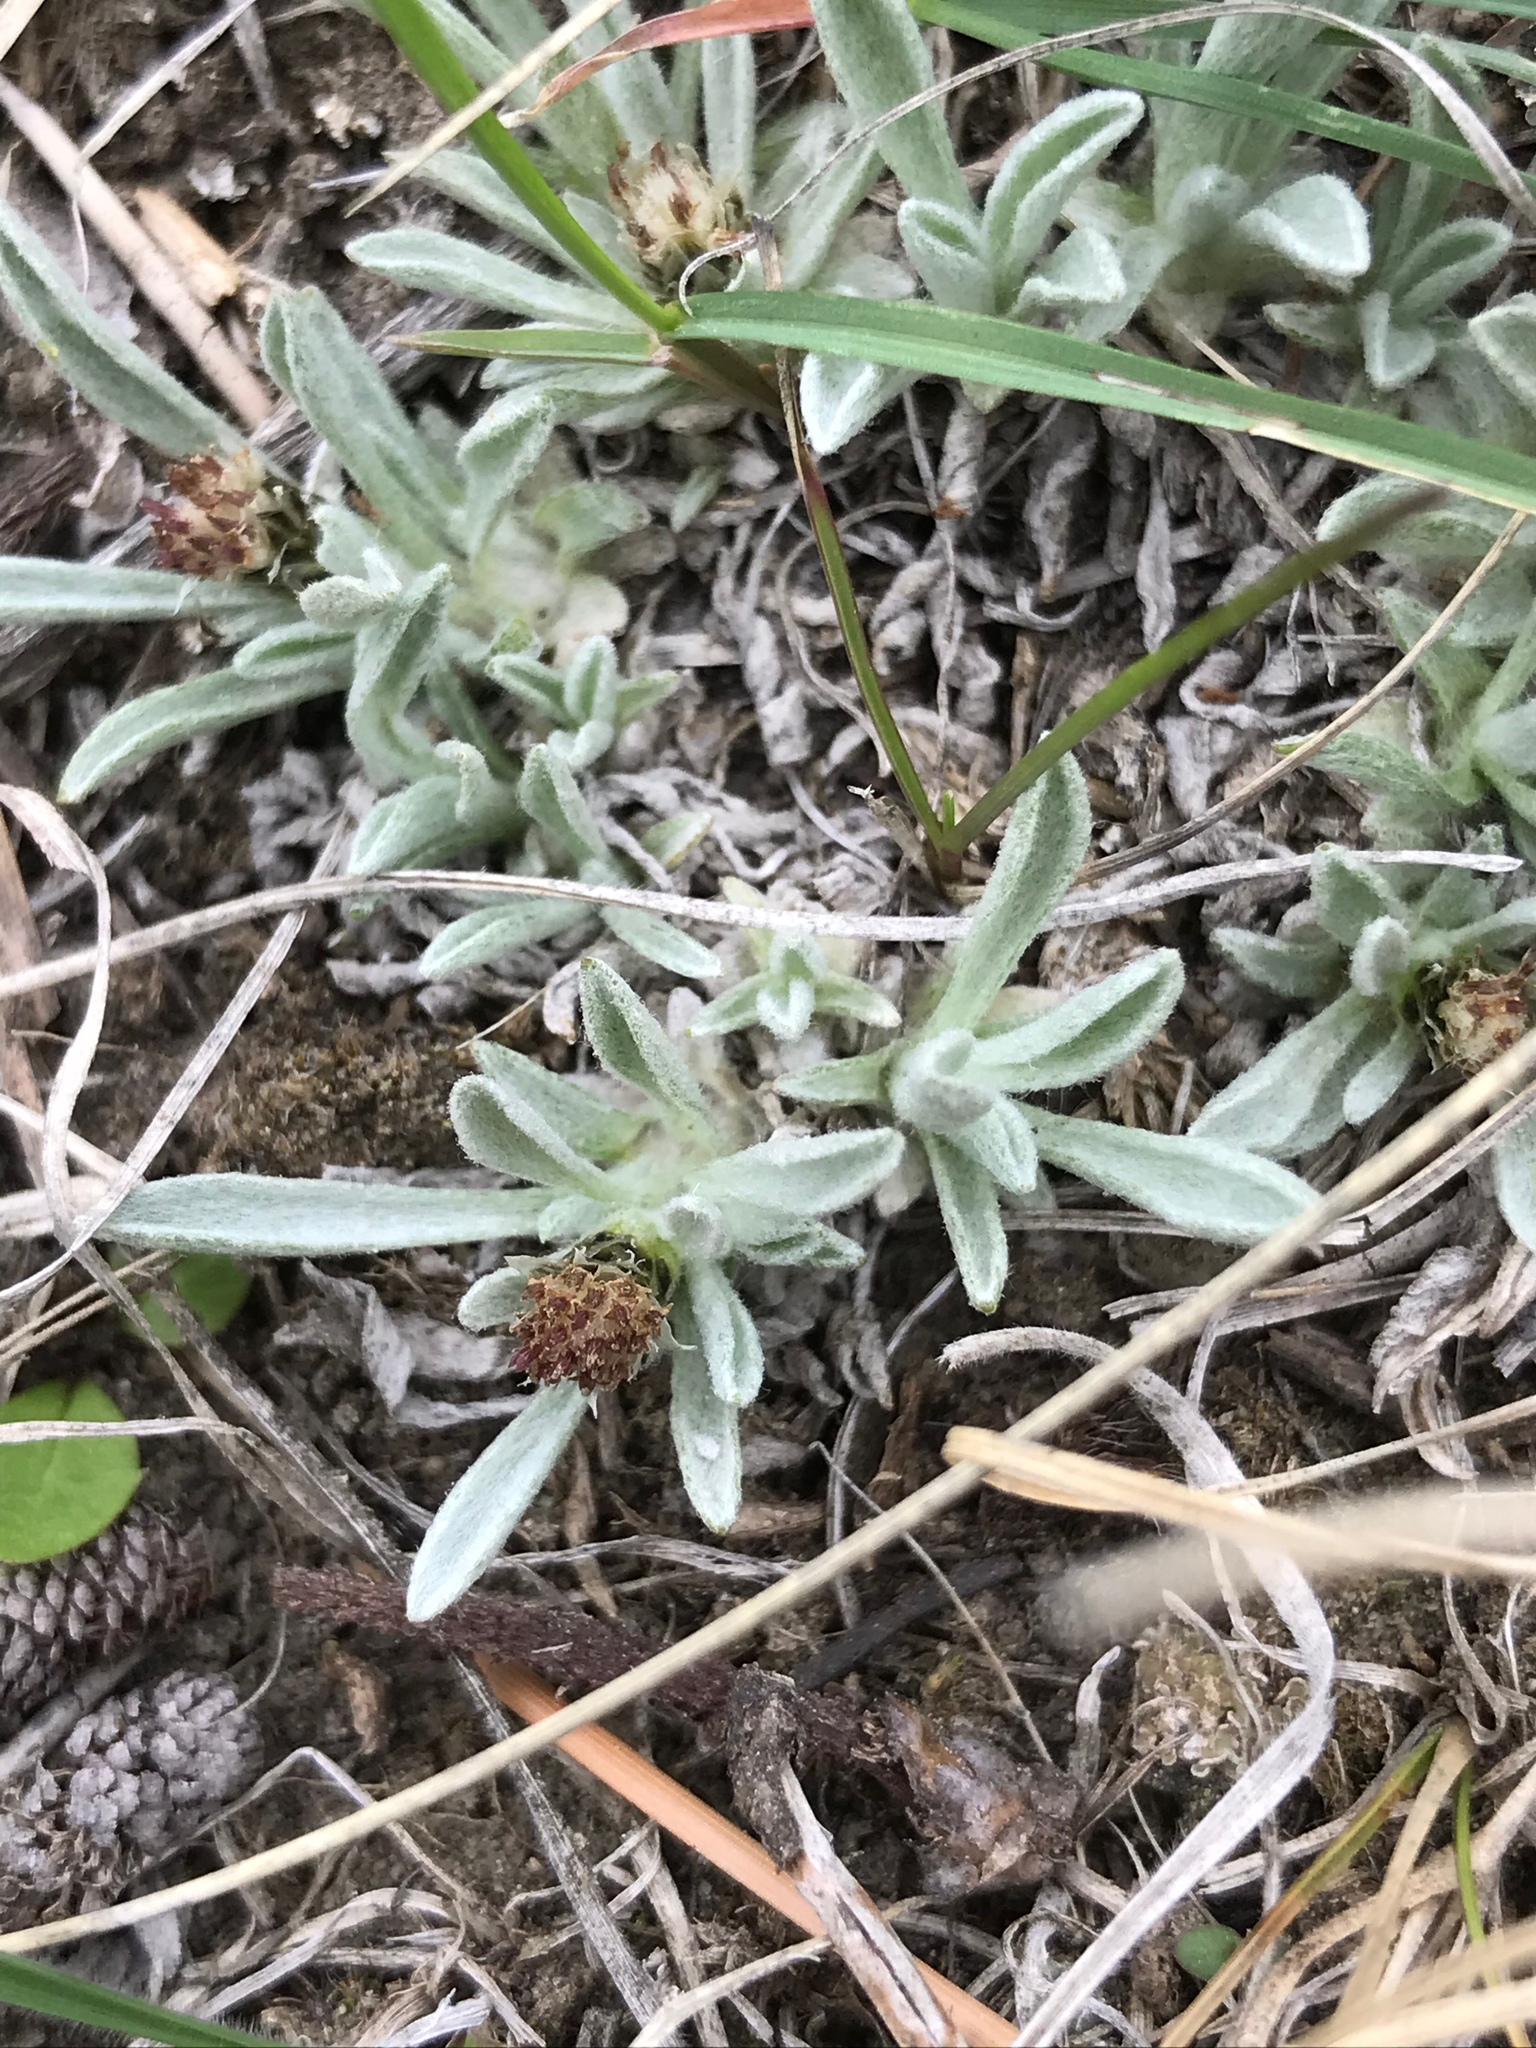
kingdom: Plantae
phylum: Tracheophyta
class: Magnoliopsida
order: Asterales
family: Asteraceae
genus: Antennaria
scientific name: Antennaria dimorpha
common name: Cushion pussytoes
